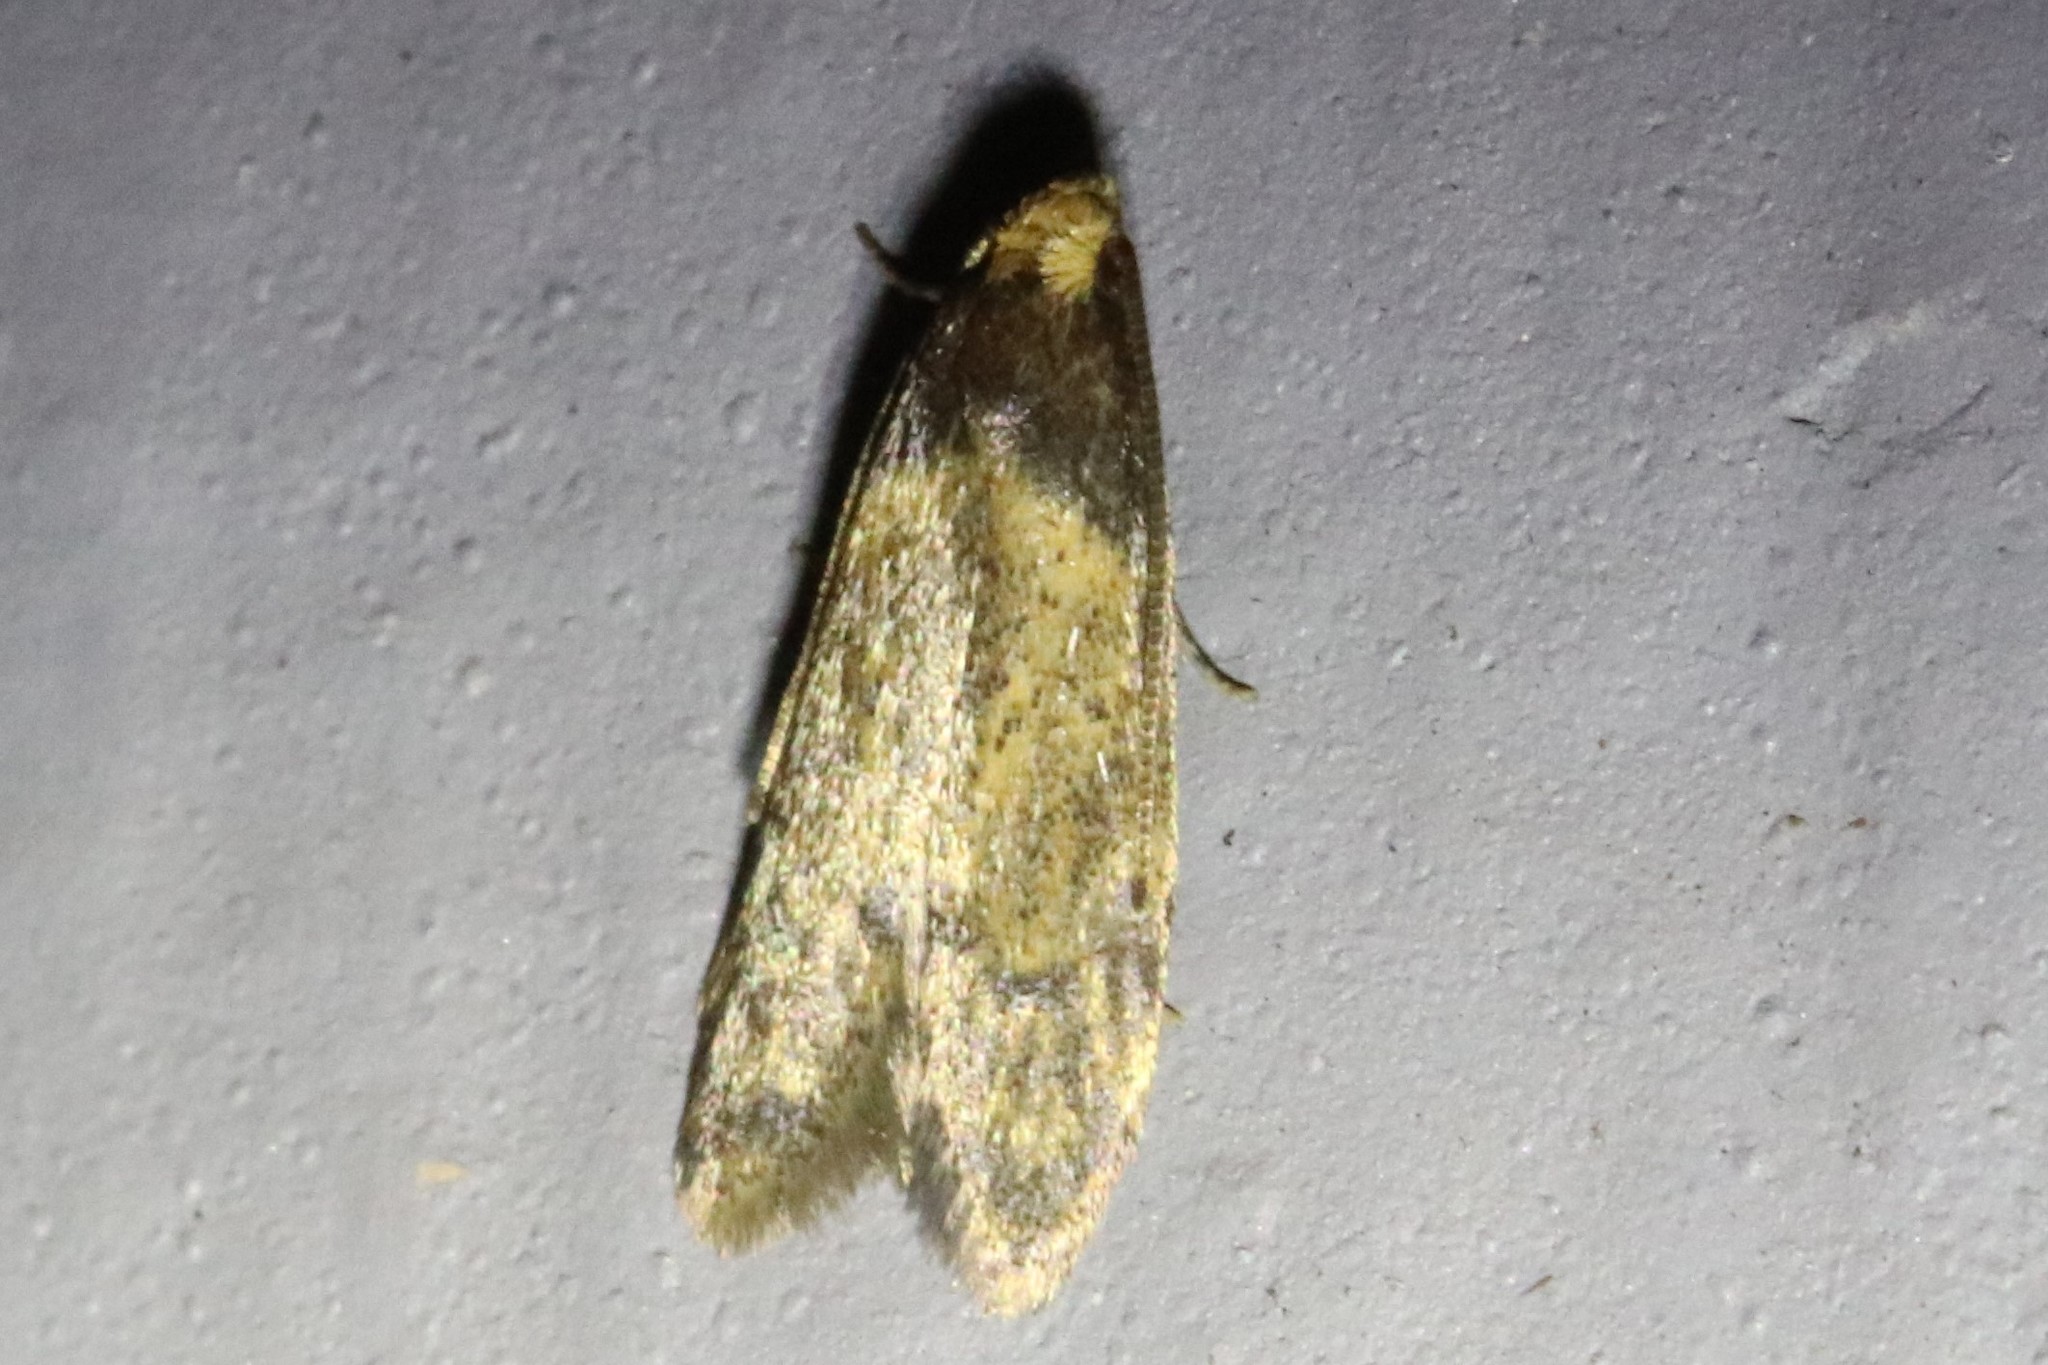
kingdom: Animalia
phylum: Arthropoda
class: Insecta
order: Lepidoptera
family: Autostichidae
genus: Gerdana
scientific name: Gerdana caritella
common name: Gerdana moth
